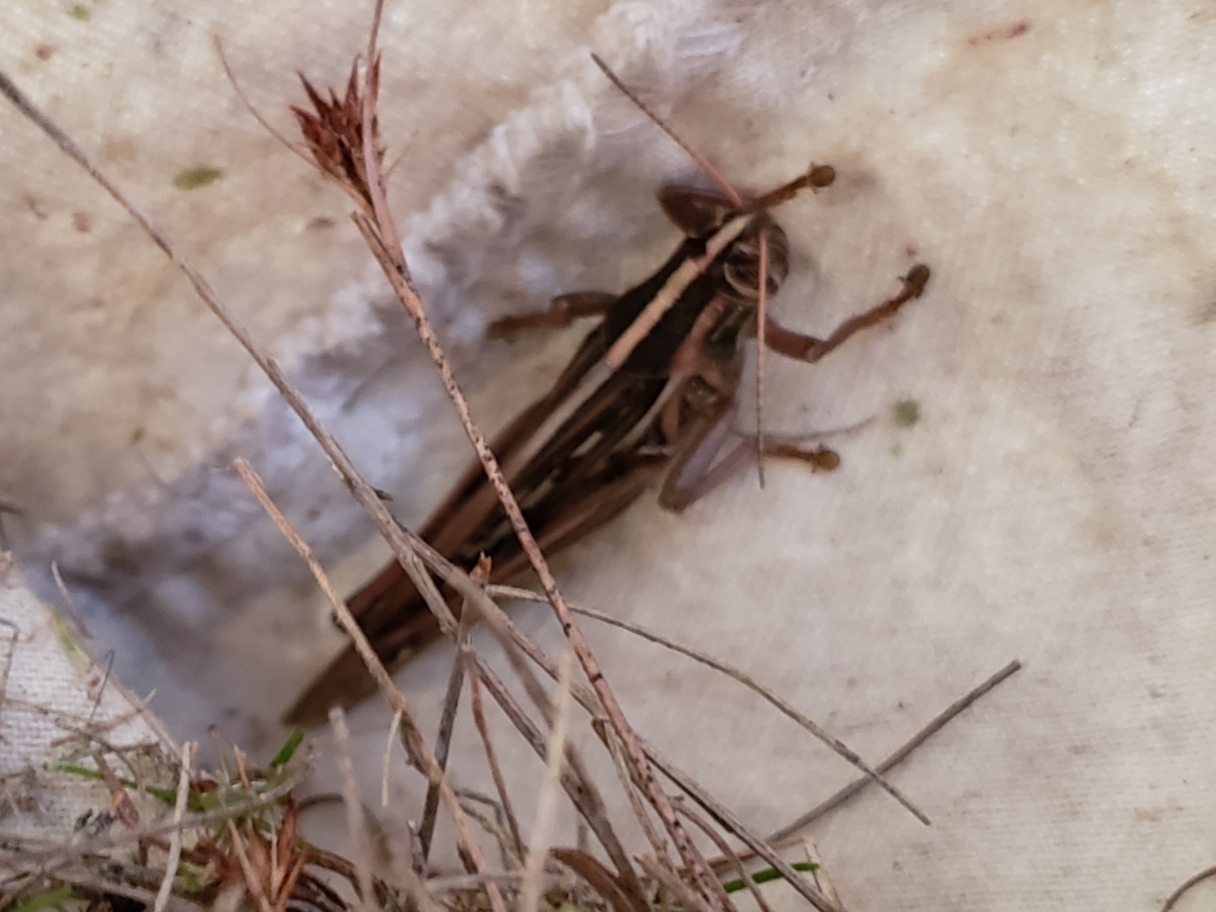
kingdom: Animalia
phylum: Arthropoda
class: Insecta
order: Orthoptera
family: Acrididae
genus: Schistocerca
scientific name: Schistocerca americana
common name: American bird locust
